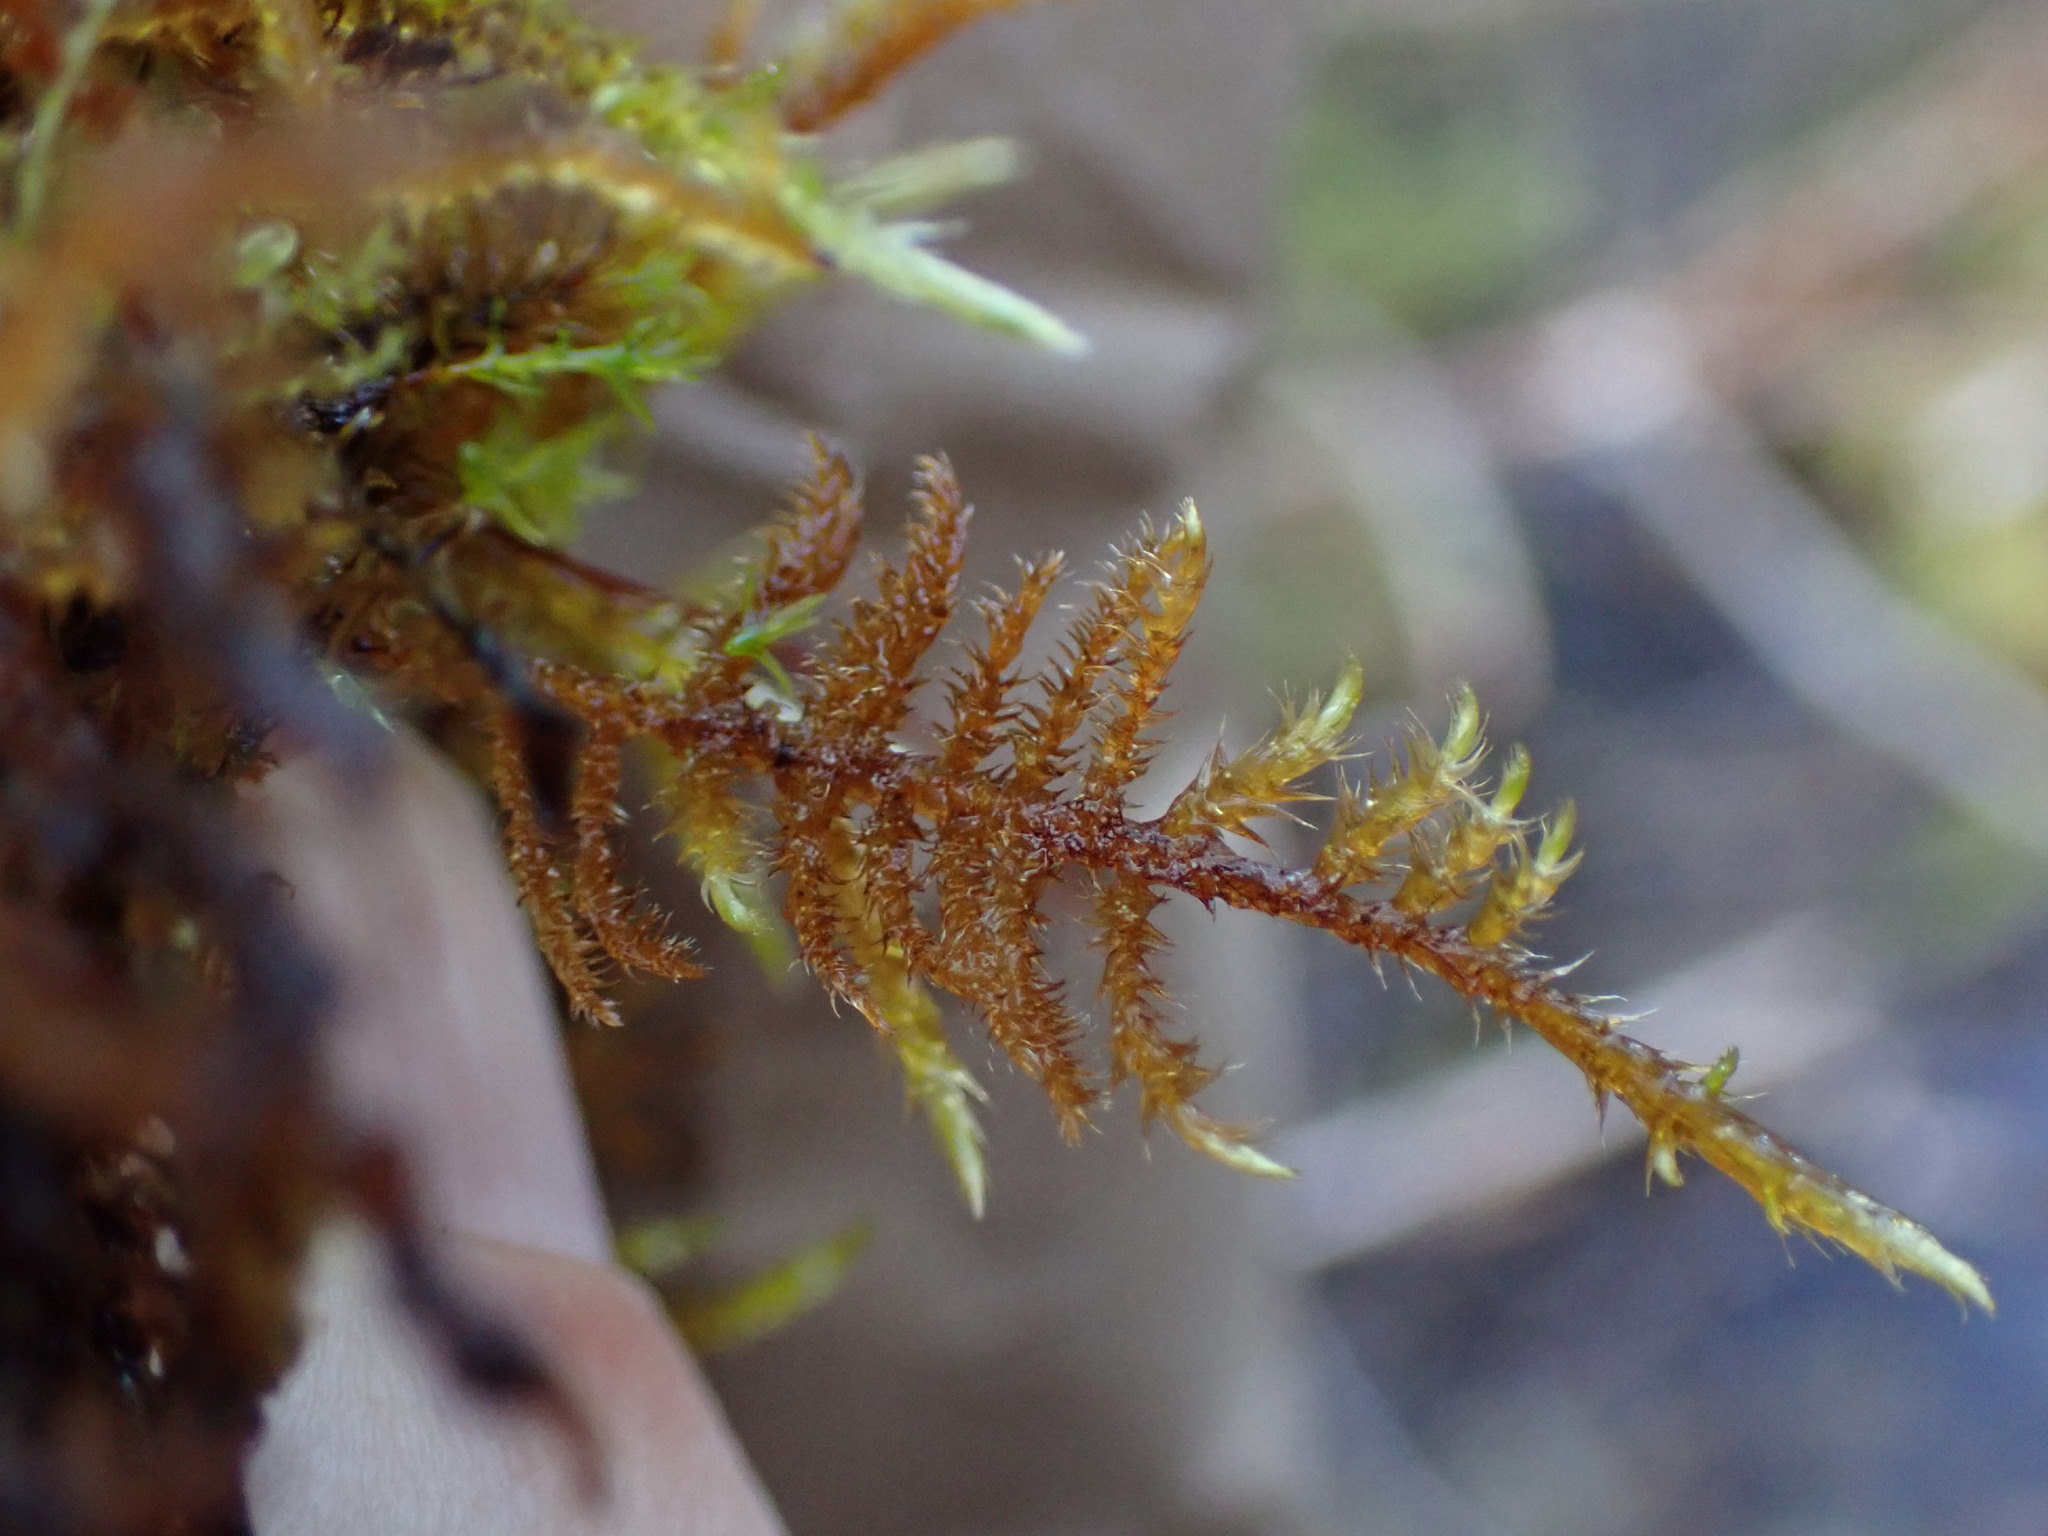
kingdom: Plantae
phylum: Bryophyta
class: Bryopsida
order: Hypnales
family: Amblystegiaceae
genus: Cratoneuron
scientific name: Cratoneuron filicinum
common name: Fern-leaved hook moss
